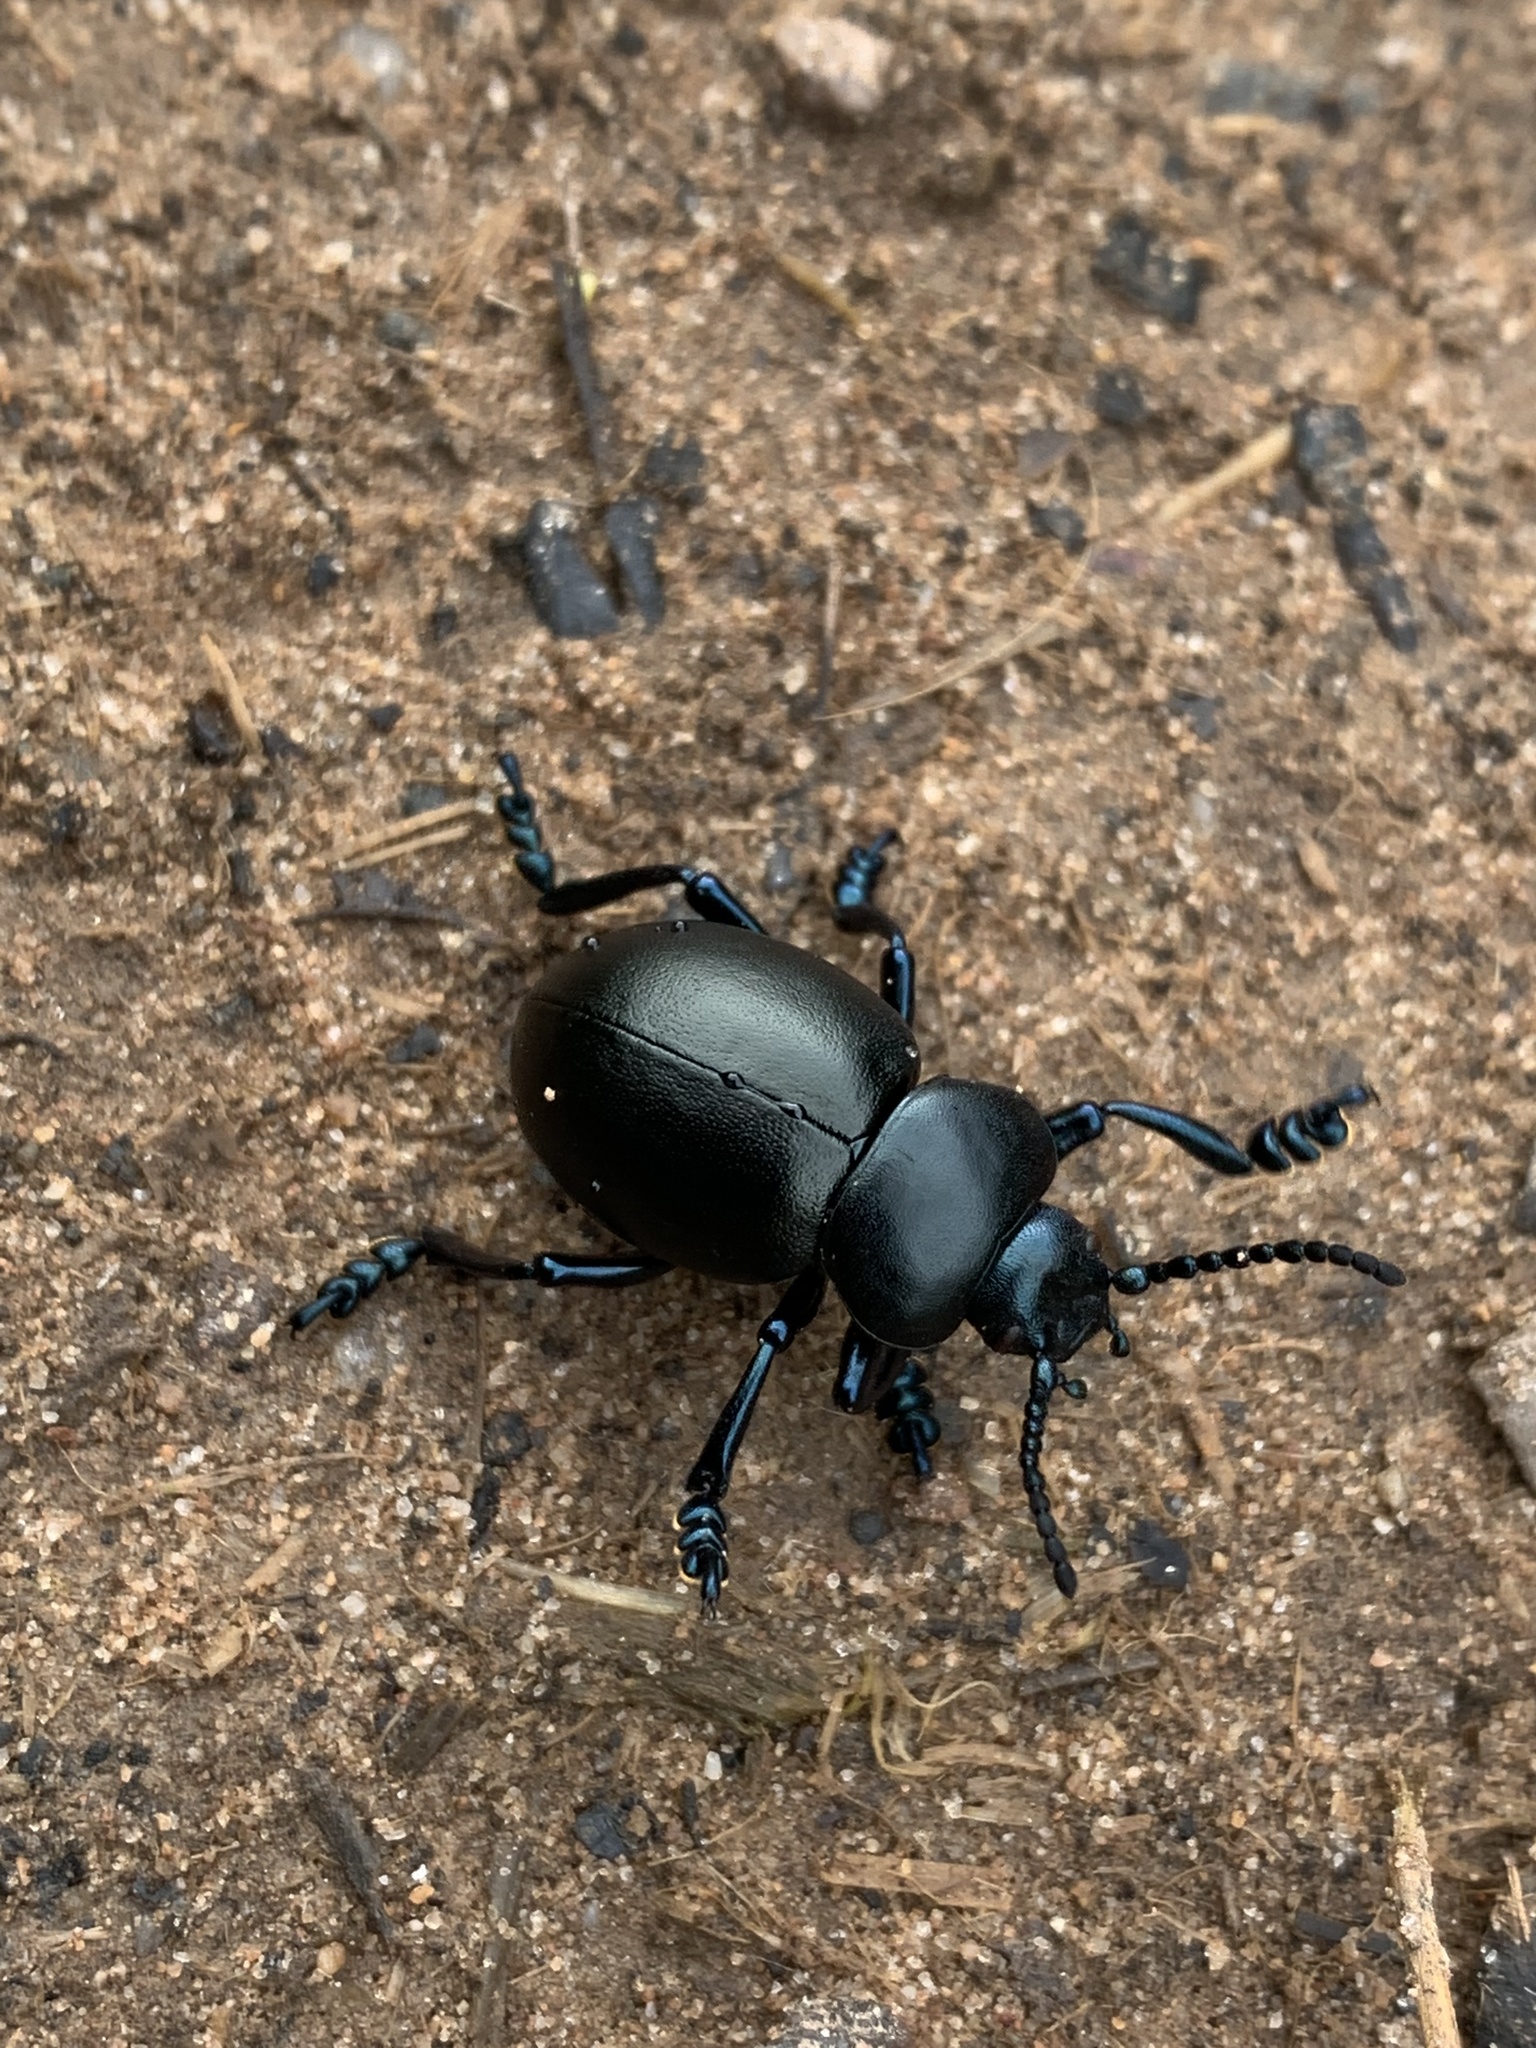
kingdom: Animalia
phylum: Arthropoda
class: Insecta
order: Coleoptera
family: Chrysomelidae
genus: Timarcha
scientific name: Timarcha tenebricosa
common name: Bloody-nosed beetle
